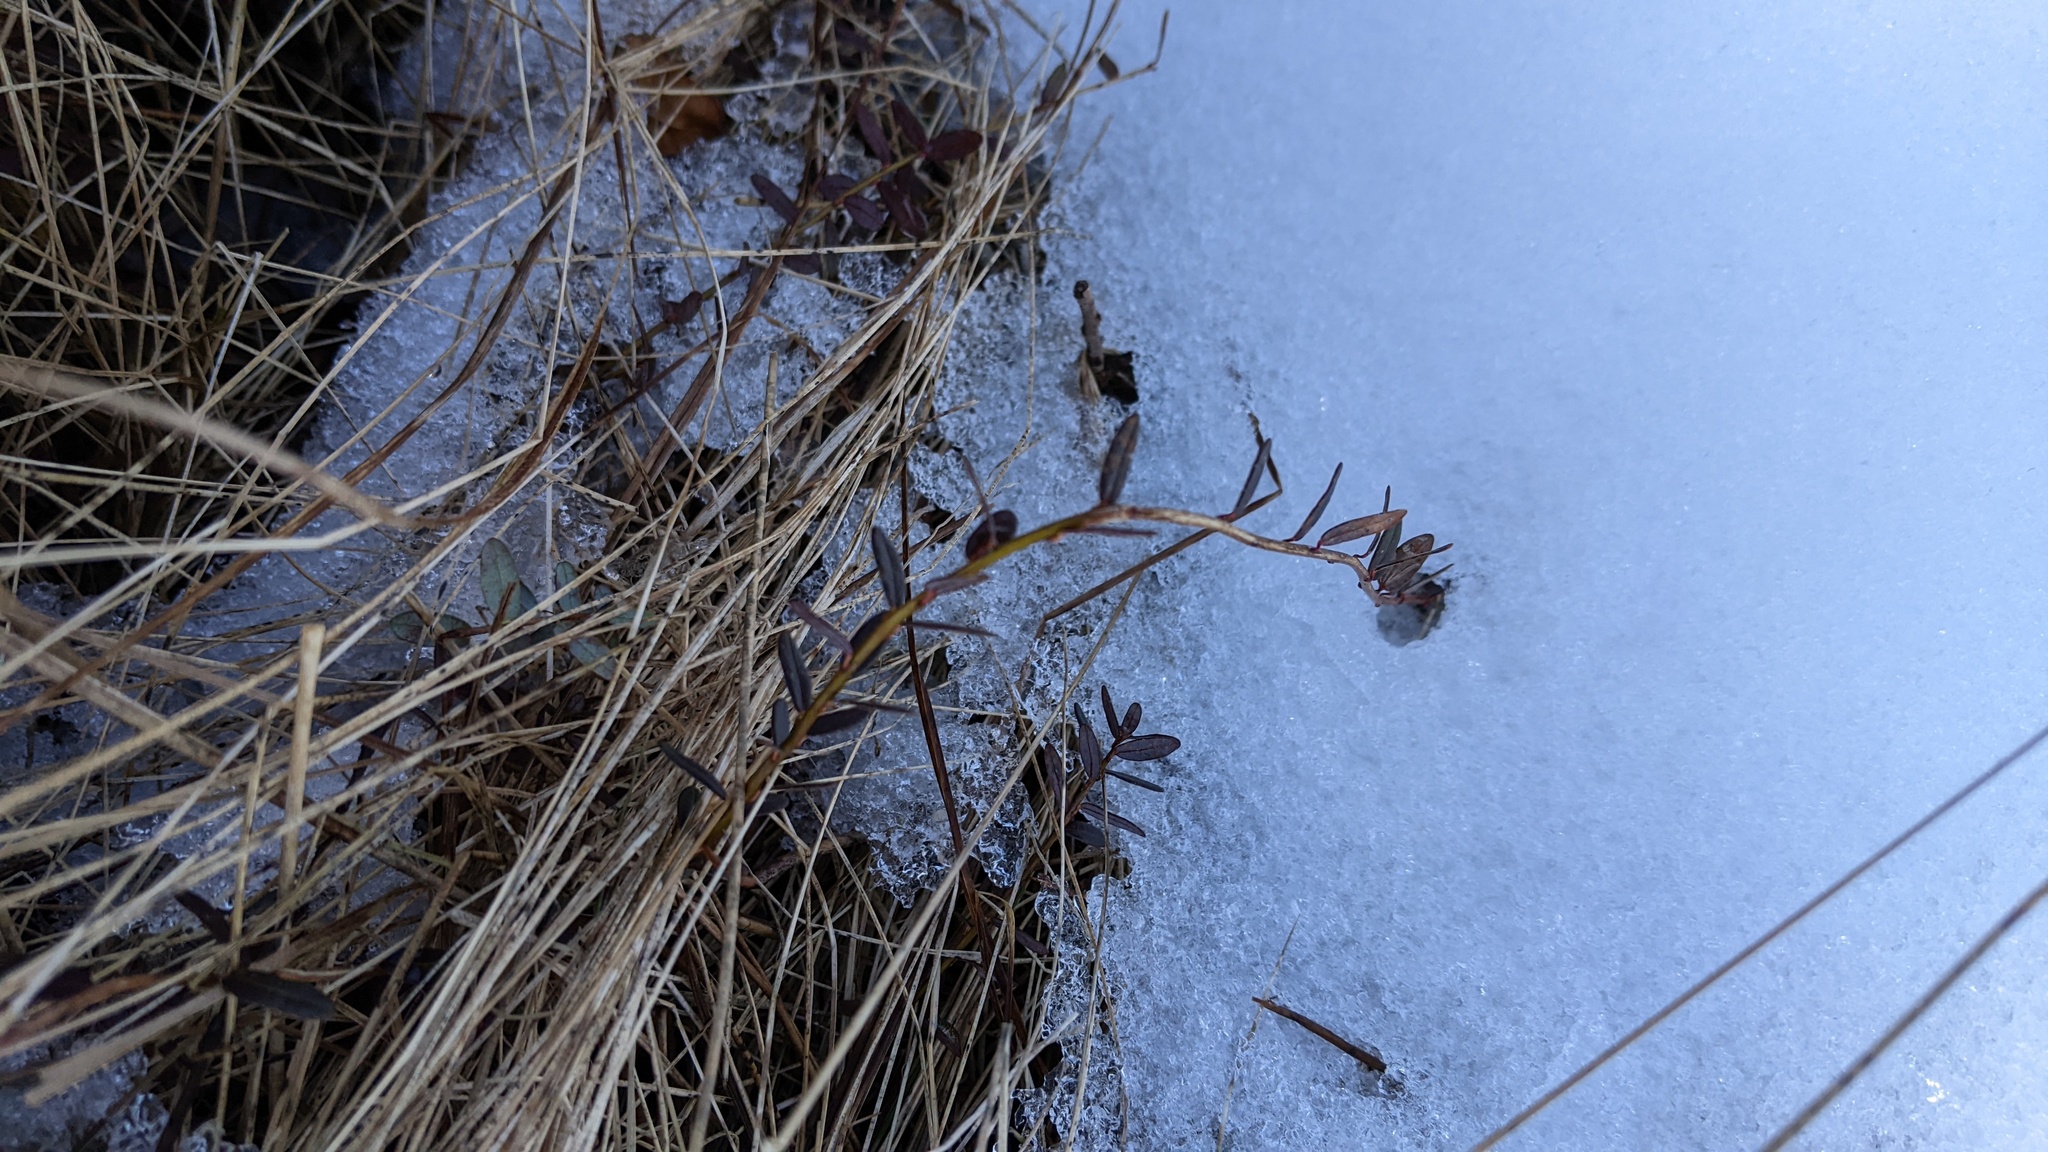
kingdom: Plantae
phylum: Tracheophyta
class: Magnoliopsida
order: Ericales
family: Ericaceae
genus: Vaccinium
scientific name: Vaccinium macrocarpon
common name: American cranberry
